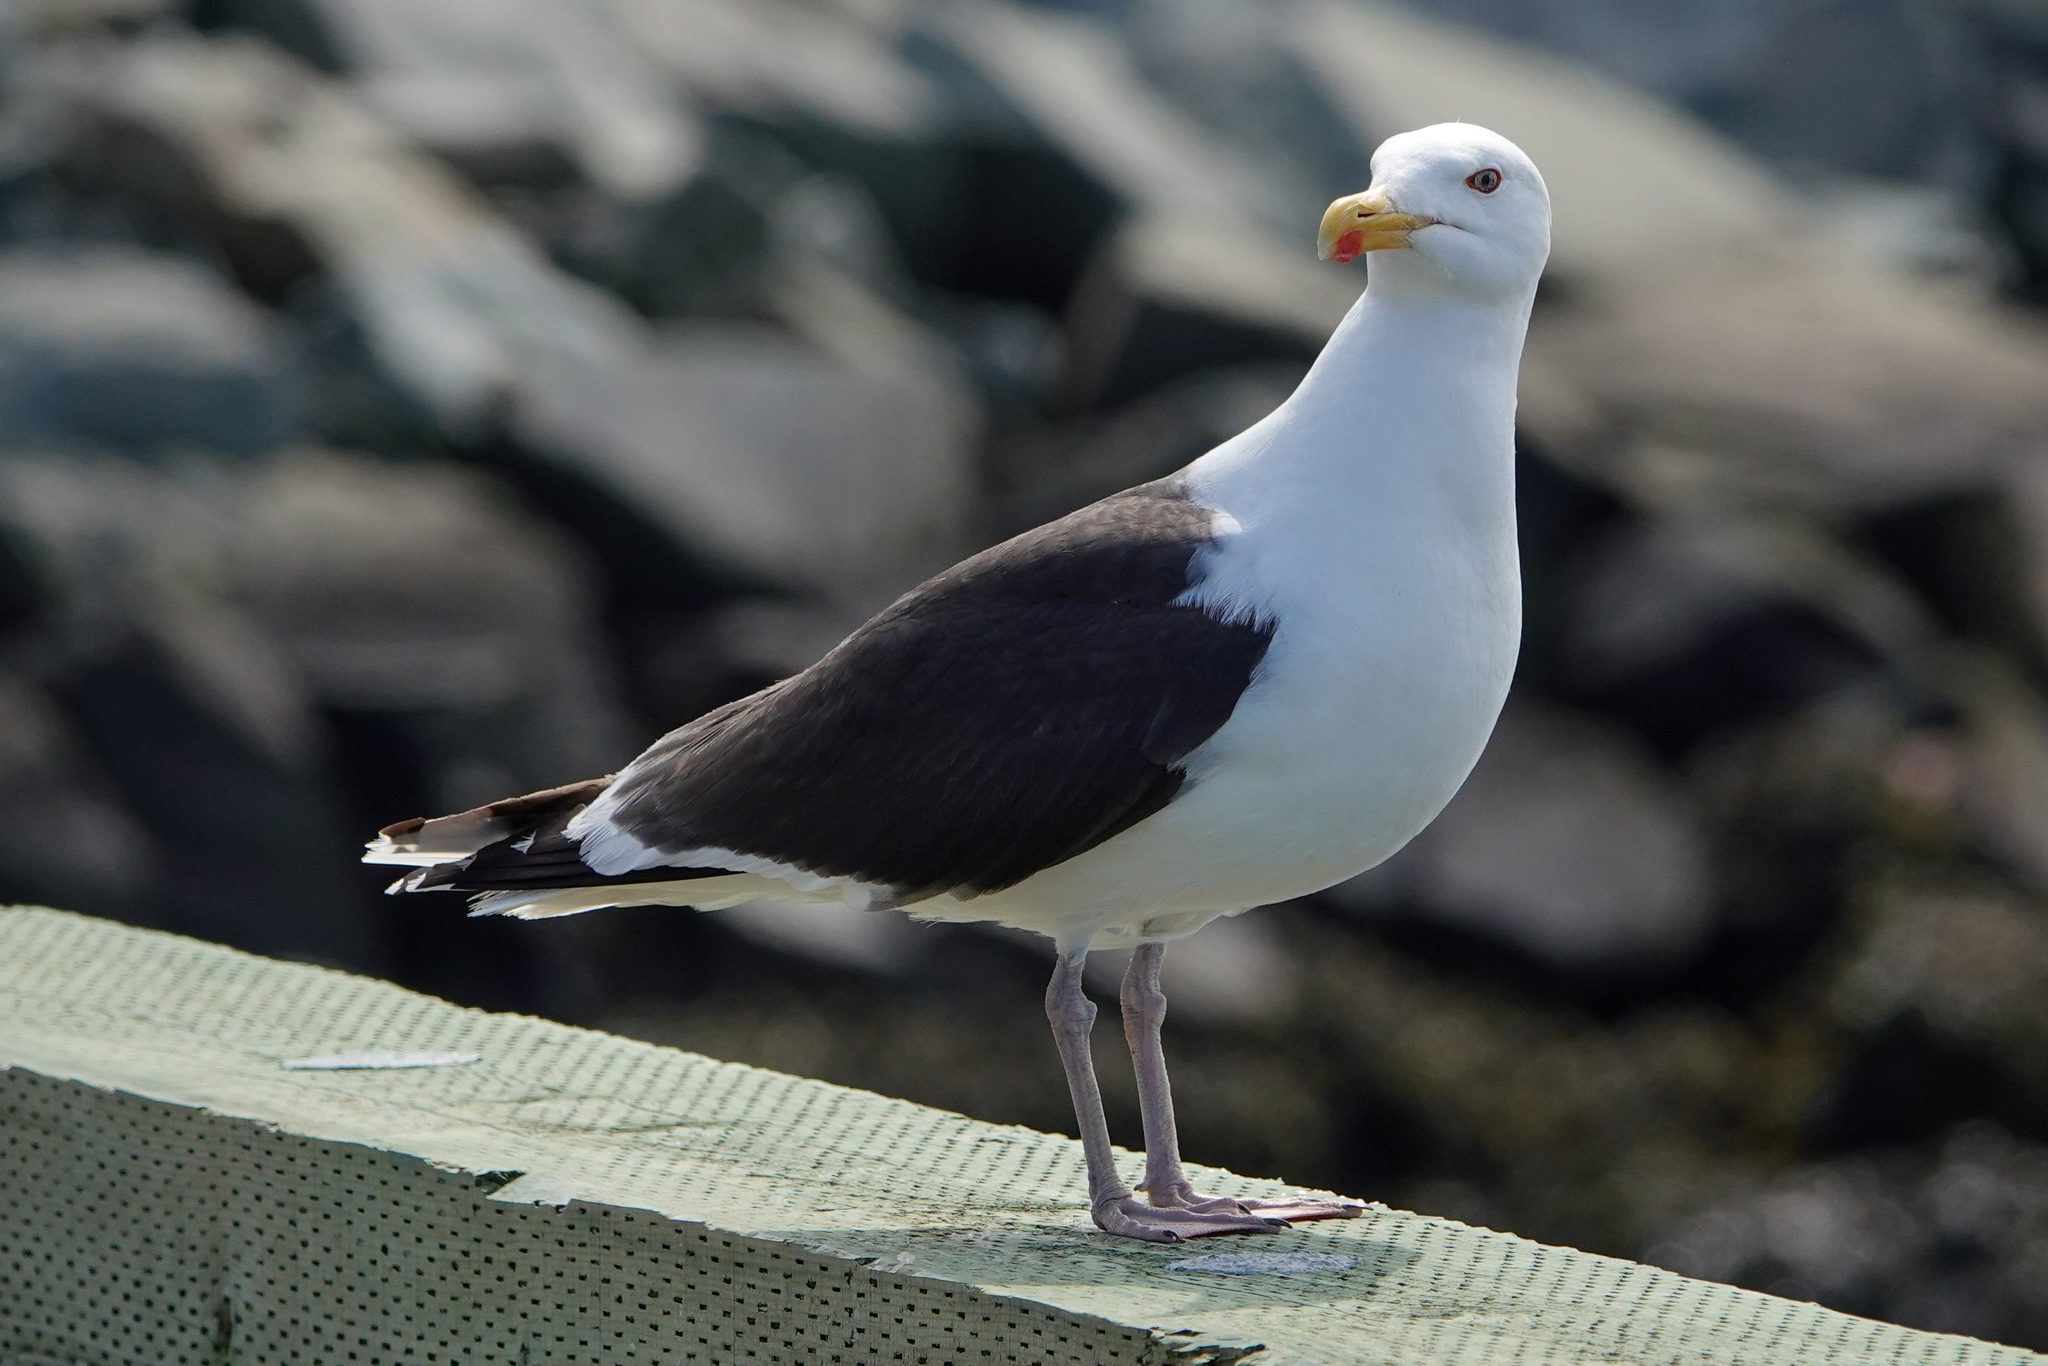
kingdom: Animalia
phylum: Chordata
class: Aves
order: Charadriiformes
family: Laridae
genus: Larus
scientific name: Larus marinus
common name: Great black-backed gull
